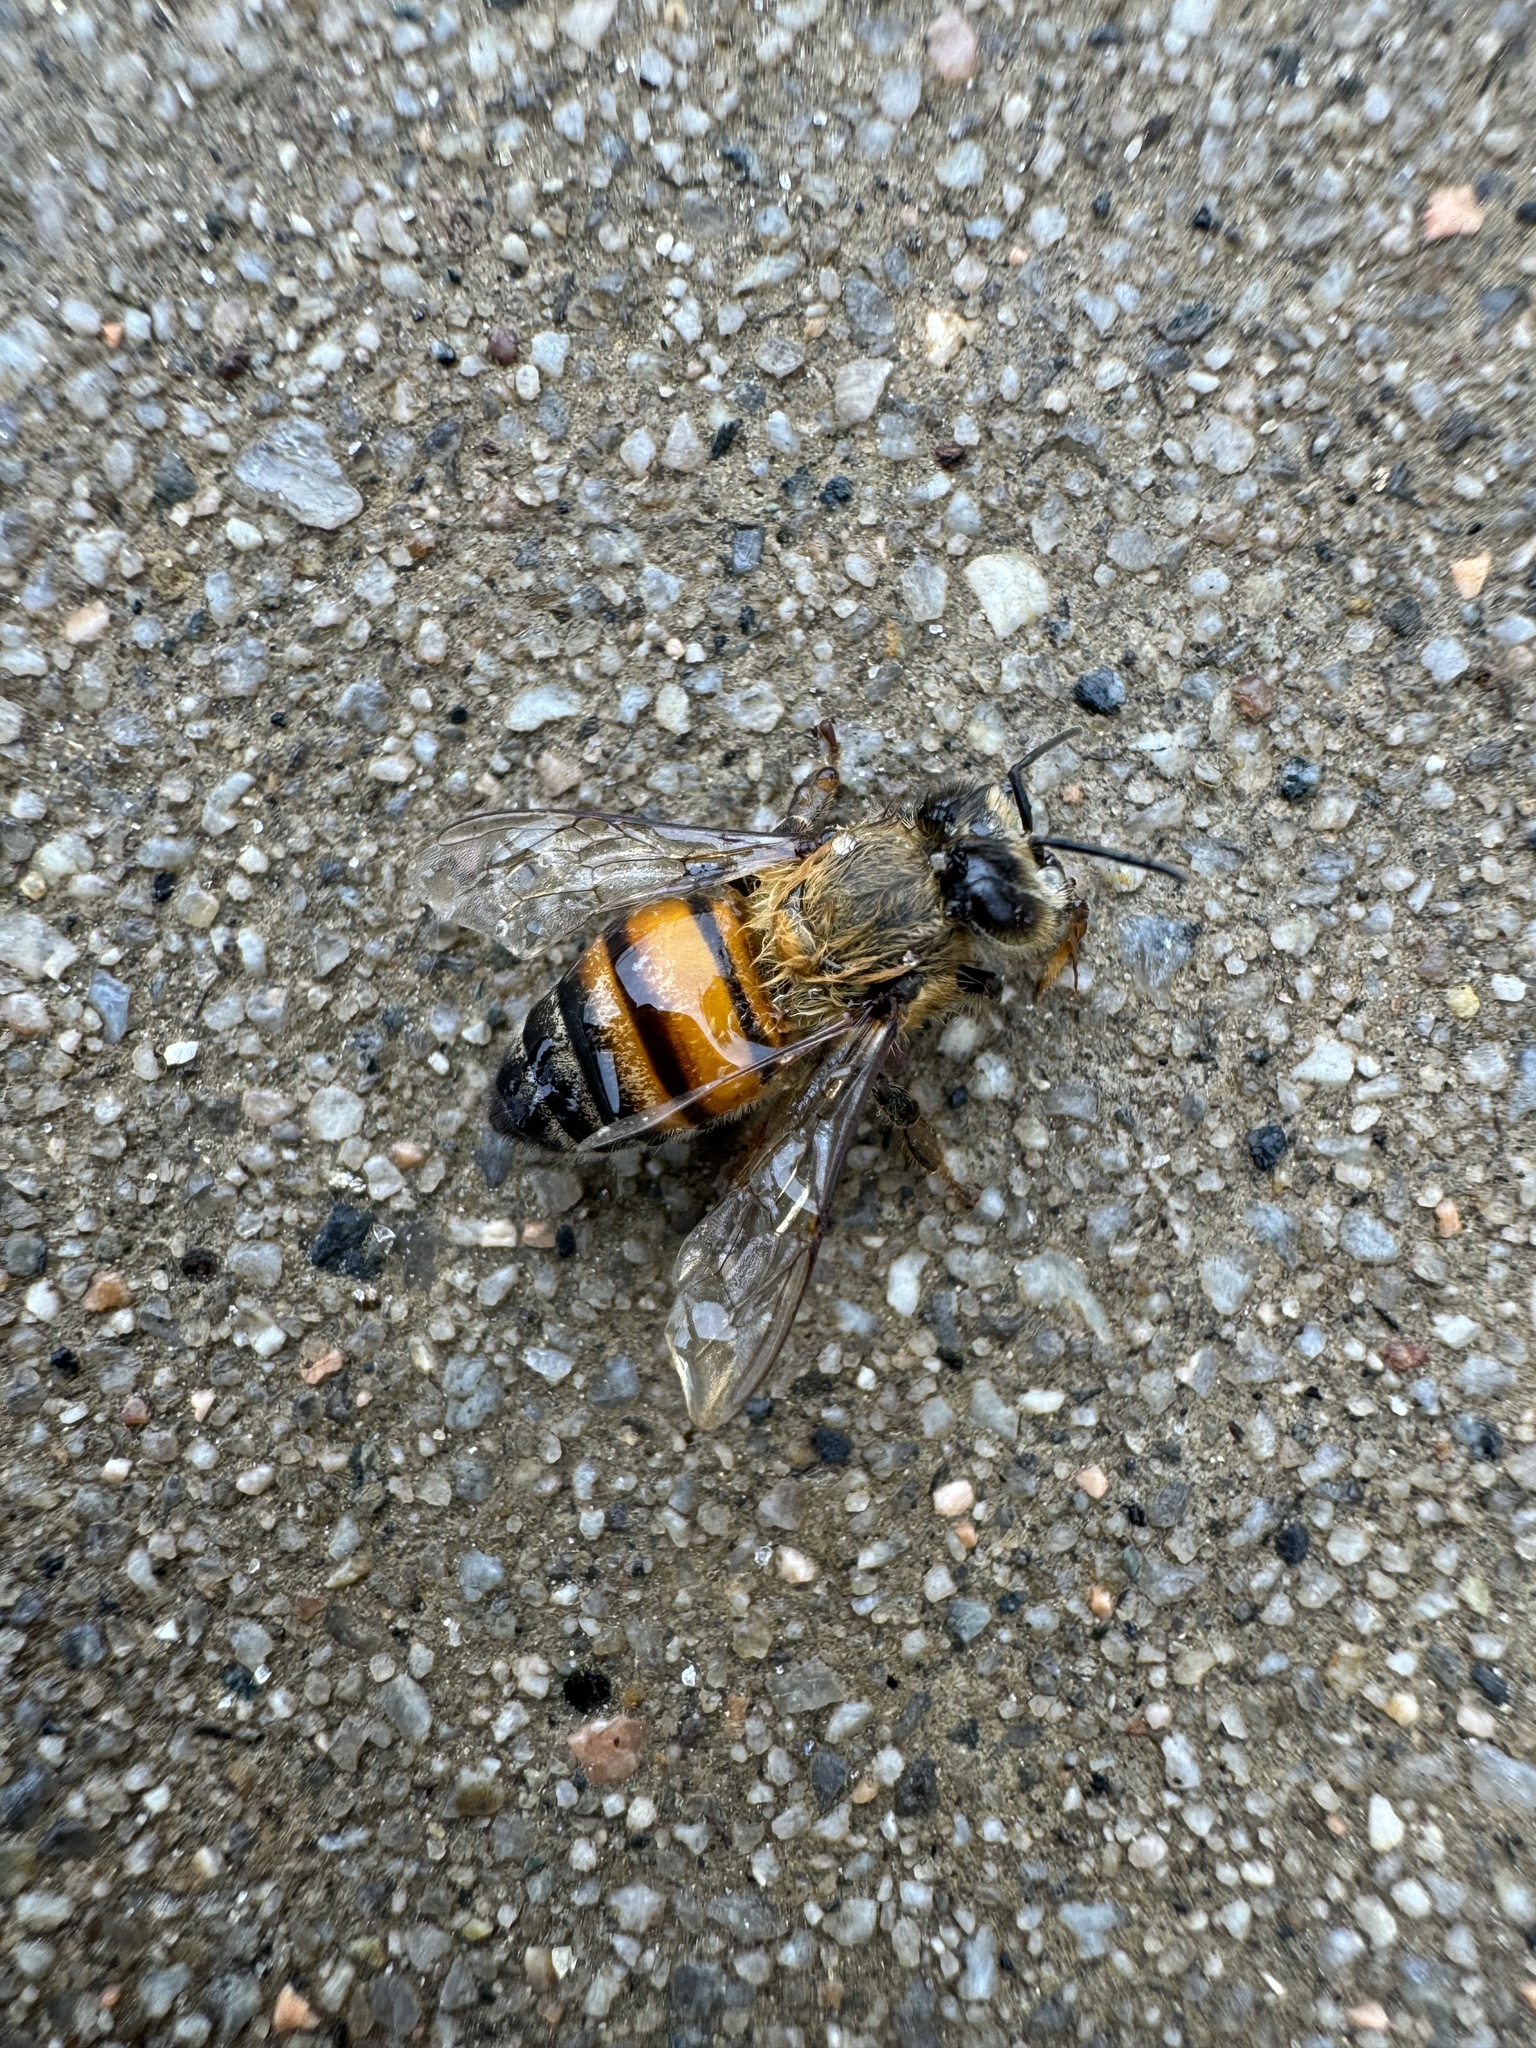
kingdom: Animalia
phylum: Arthropoda
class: Insecta
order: Hymenoptera
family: Apidae
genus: Apis
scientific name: Apis mellifera
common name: Honey bee
